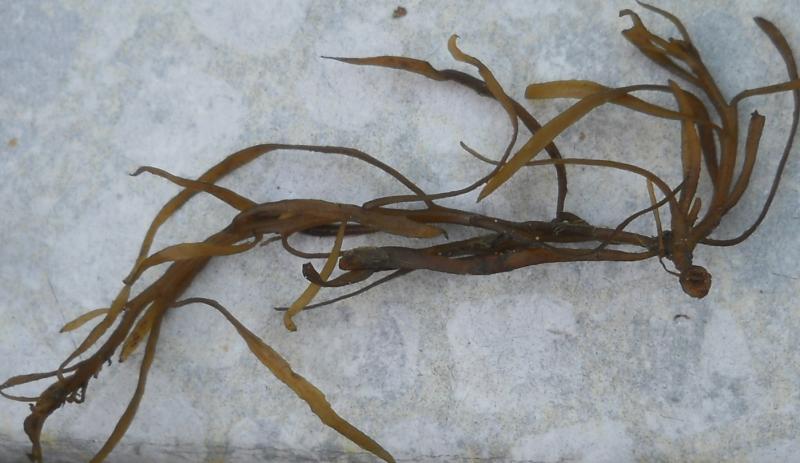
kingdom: Chromista
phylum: Ochrophyta
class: Phaeophyceae
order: Fucales
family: Himanthaliaceae
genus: Himanthalia
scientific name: Himanthalia elongata
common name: Sea-thong
